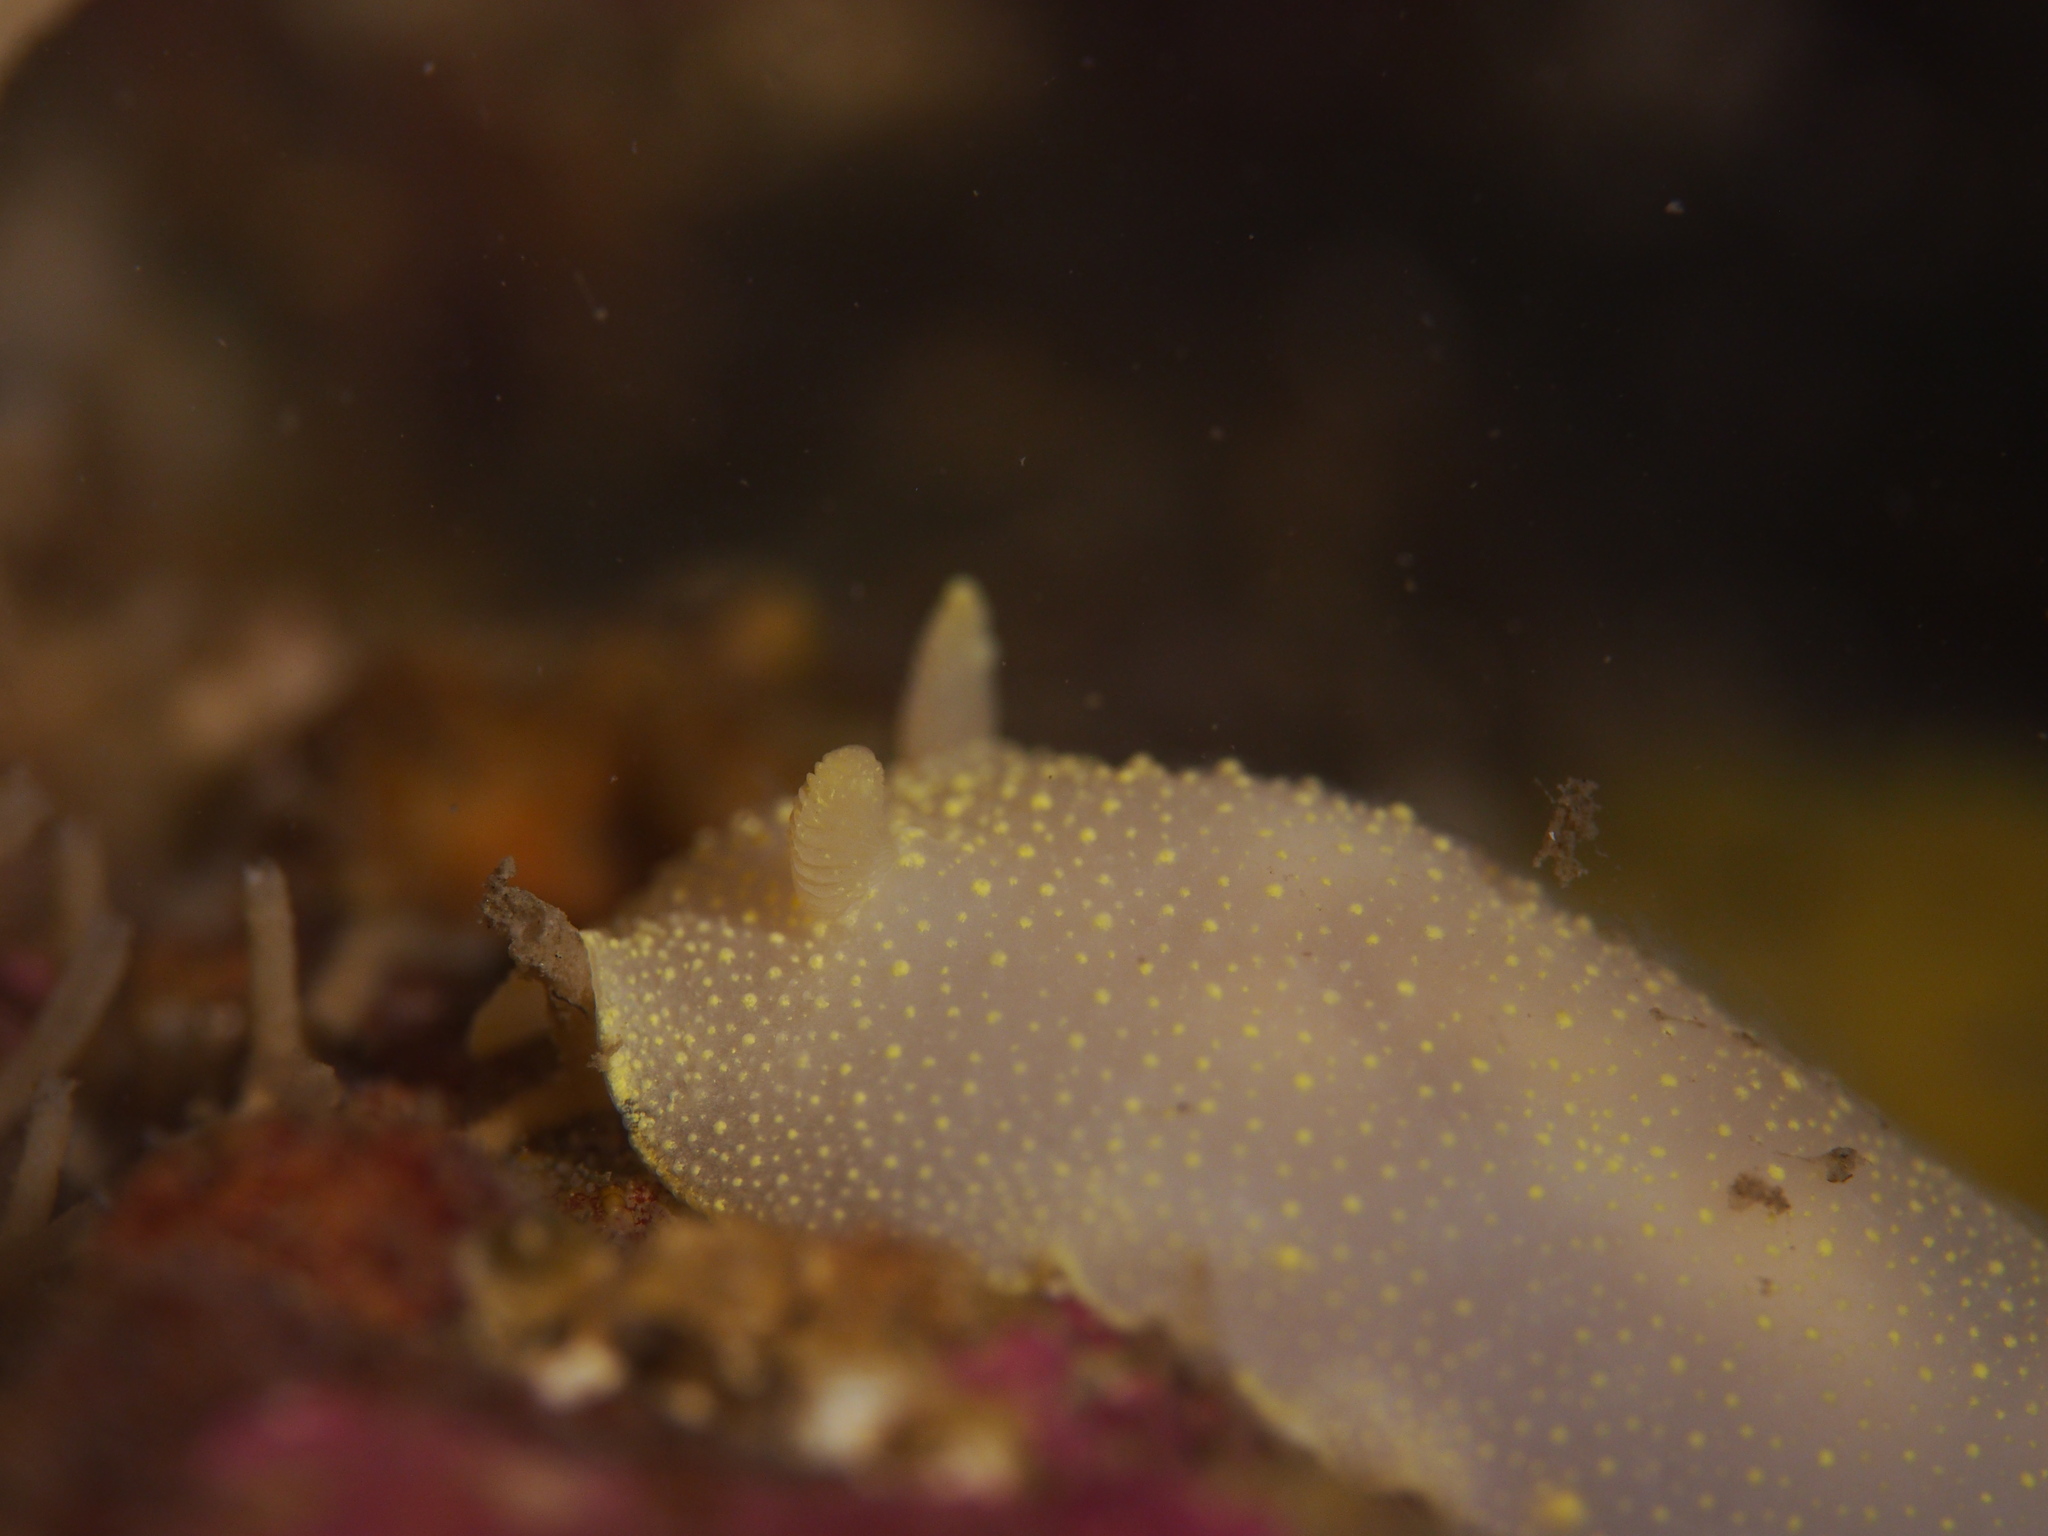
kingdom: Animalia
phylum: Mollusca
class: Gastropoda
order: Nudibranchia
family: Cadlinidae
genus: Cadlina
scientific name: Cadlina laevis
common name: White atlantic cadlina
